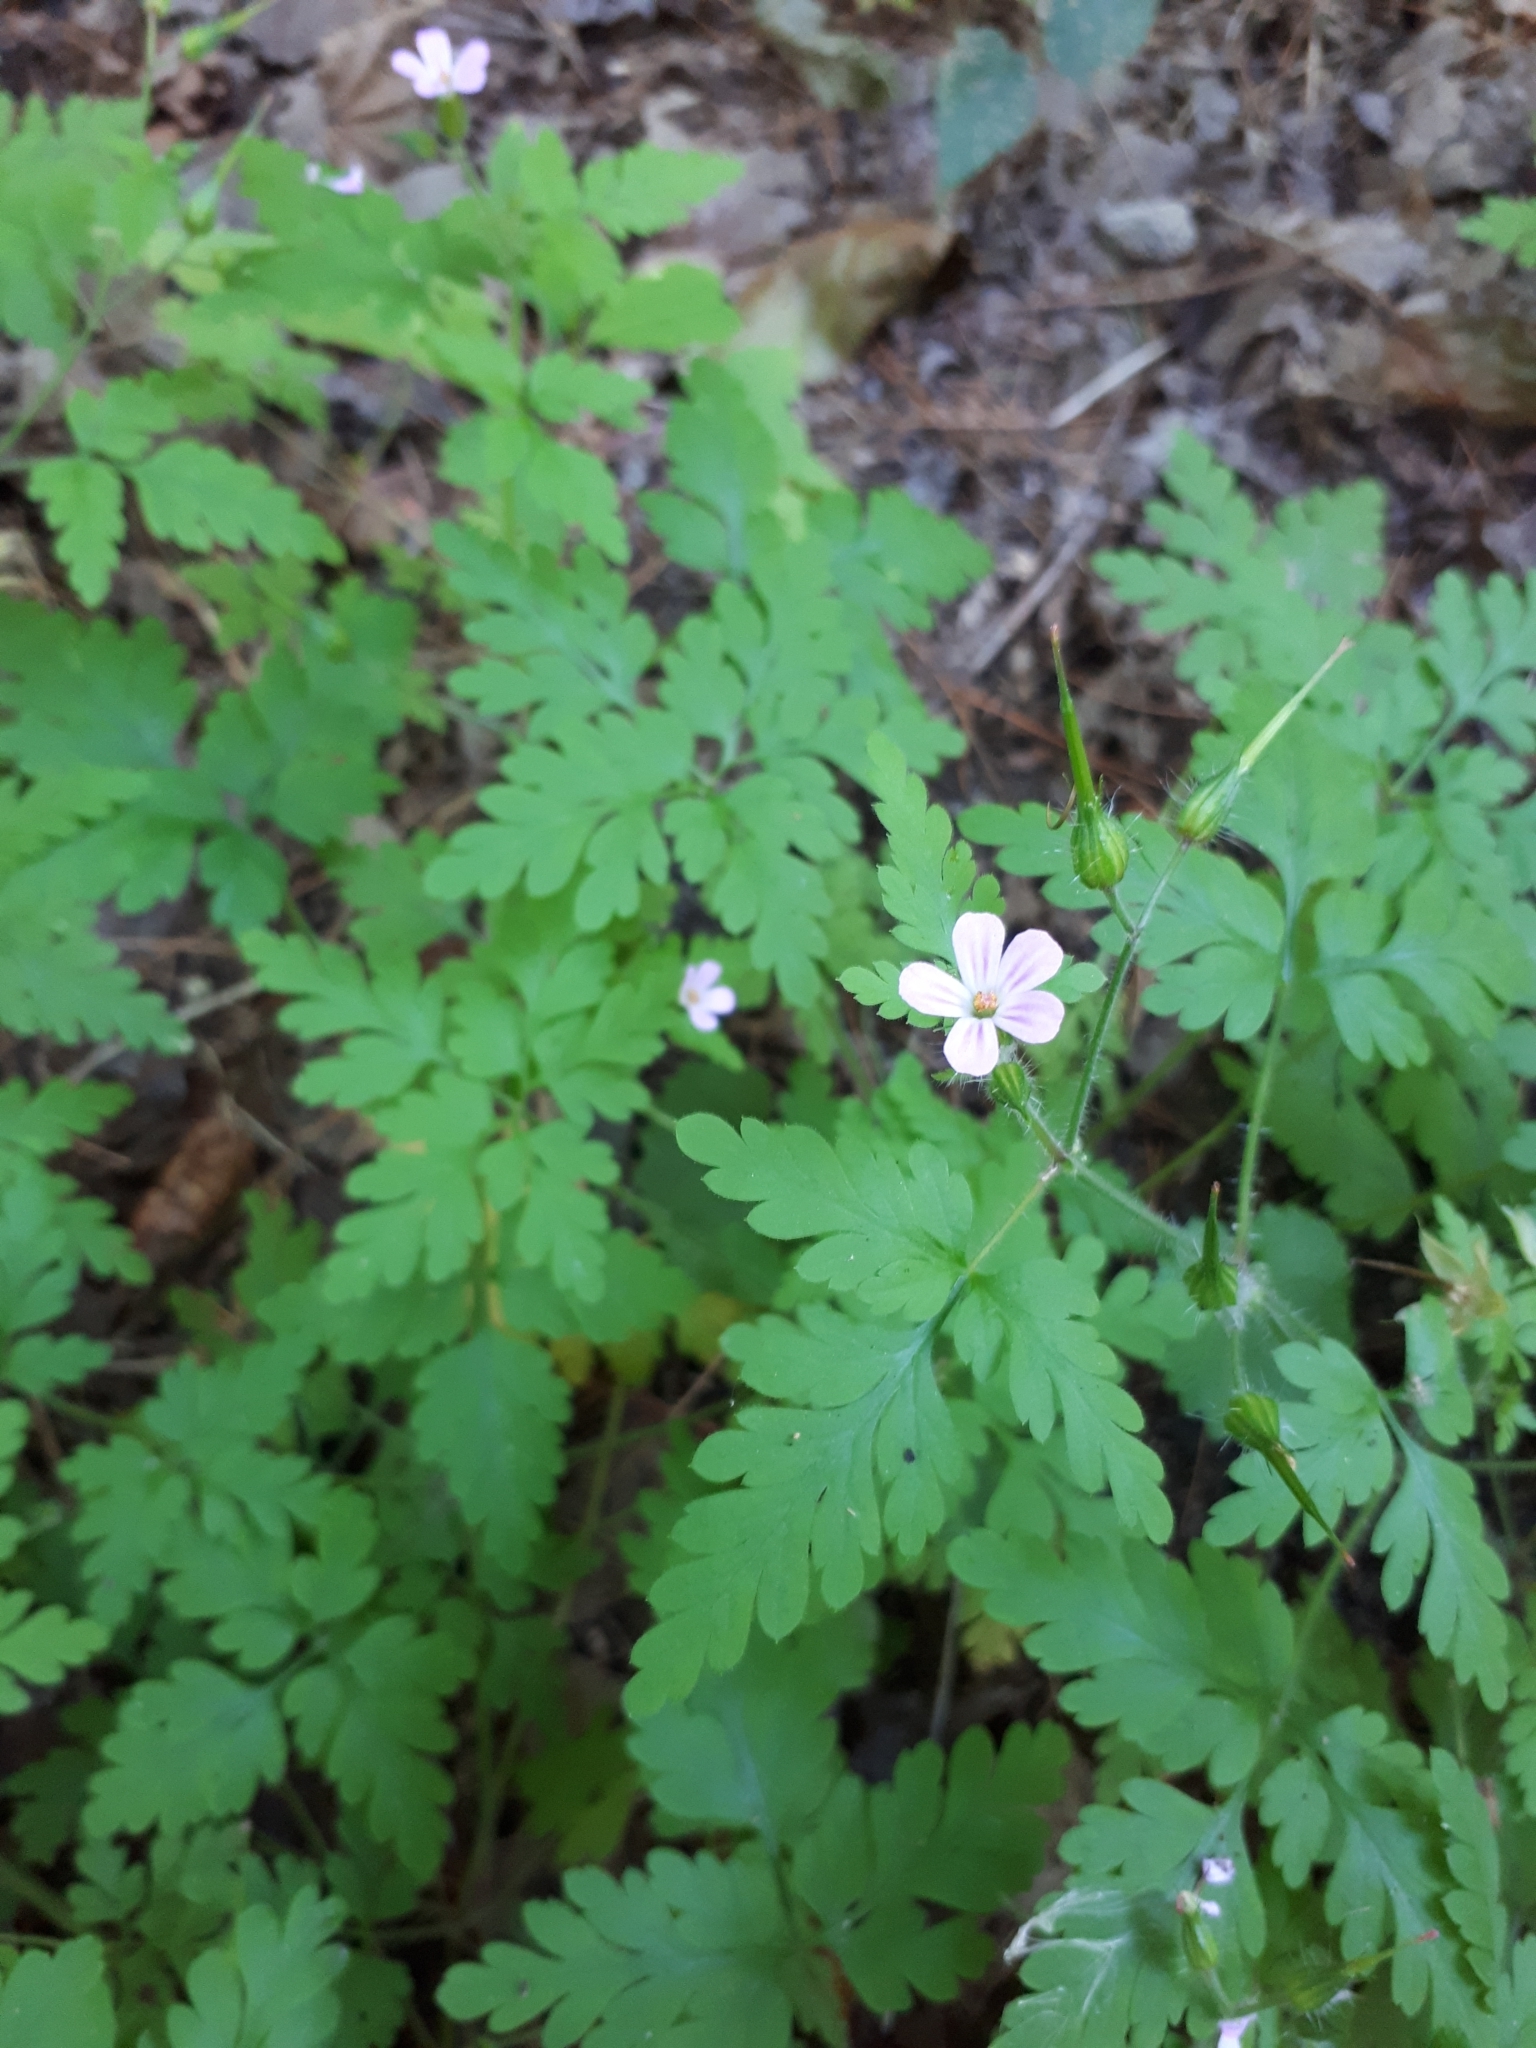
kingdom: Plantae
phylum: Tracheophyta
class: Magnoliopsida
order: Geraniales
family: Geraniaceae
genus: Geranium
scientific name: Geranium robertianum
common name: Herb-robert
